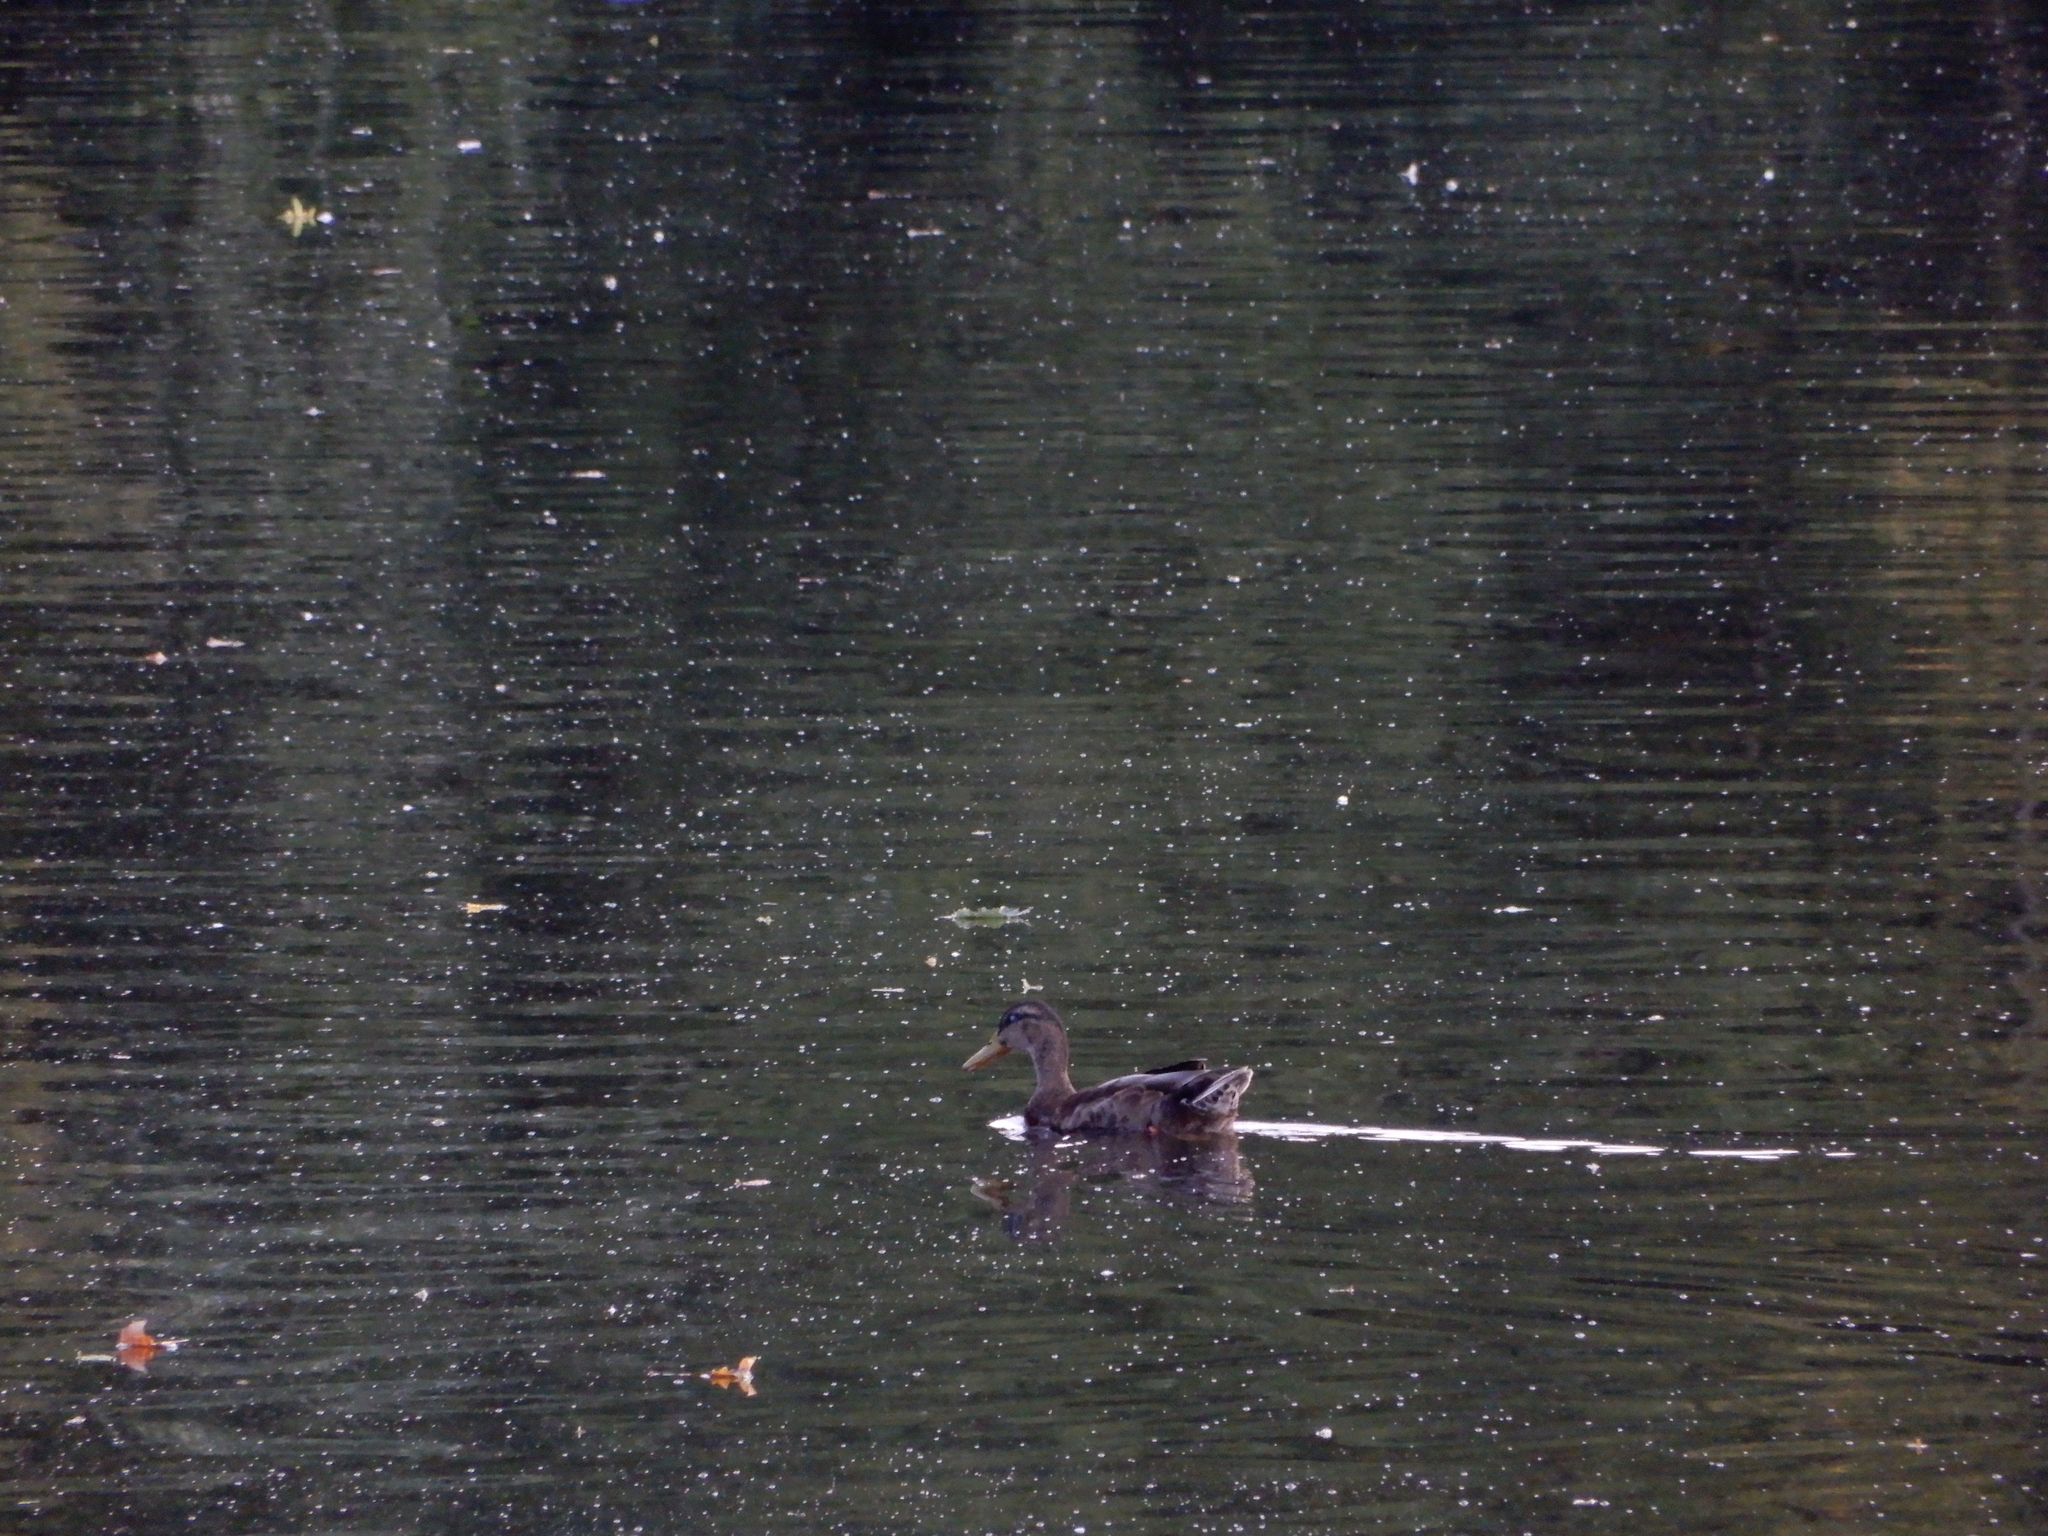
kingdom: Animalia
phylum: Chordata
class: Aves
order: Anseriformes
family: Anatidae
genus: Anas
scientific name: Anas platyrhynchos
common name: Mallard
